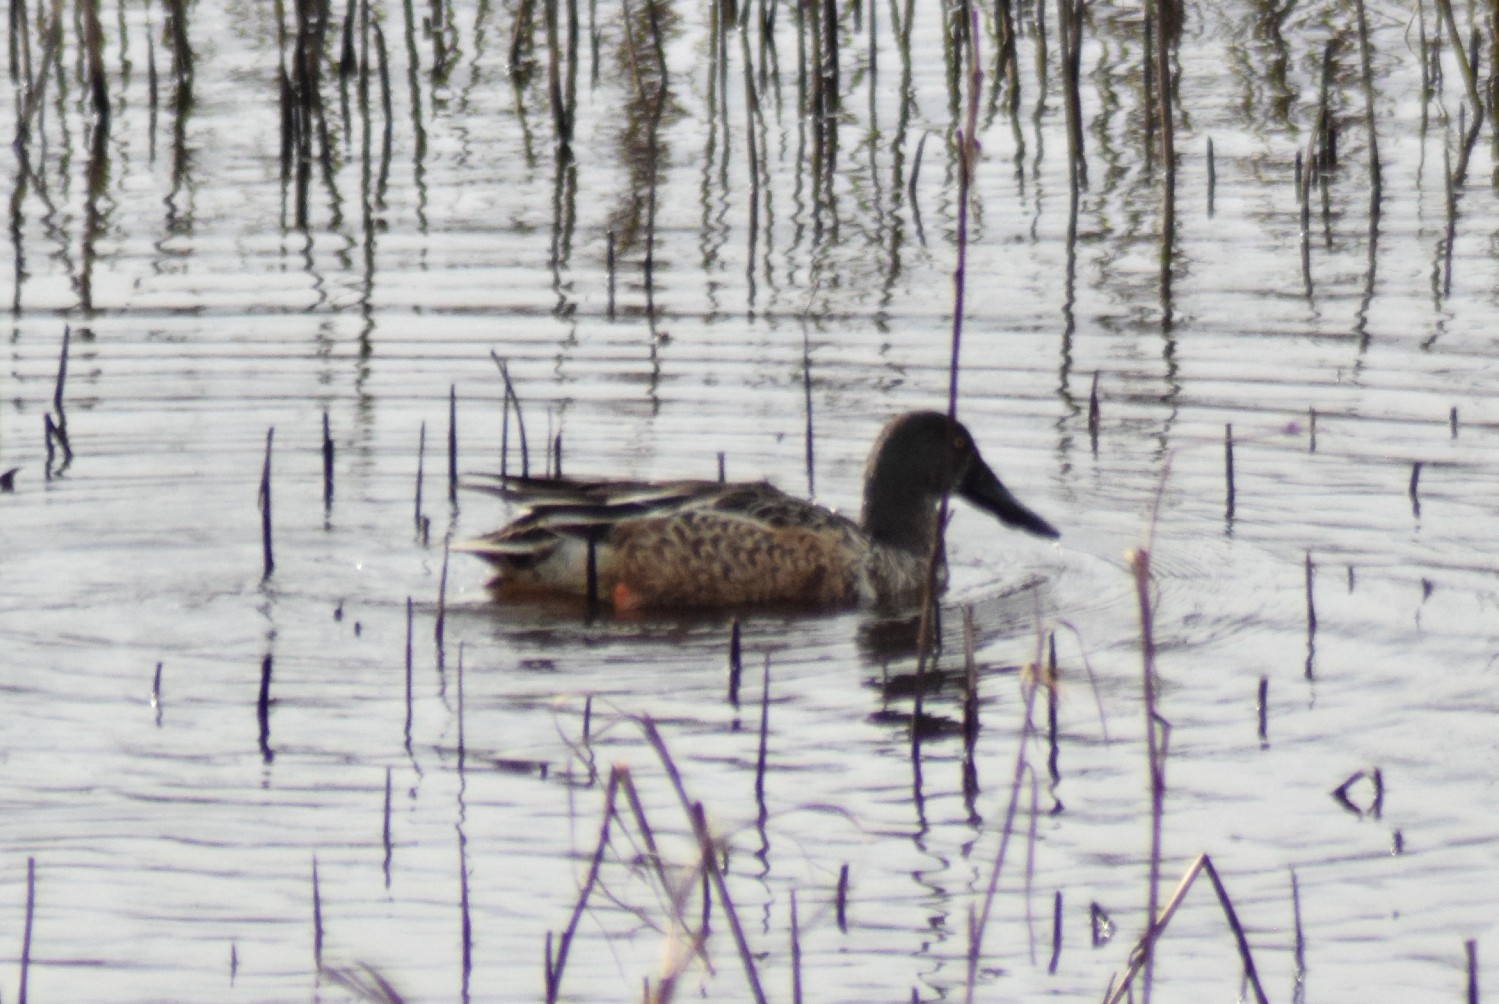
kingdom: Animalia
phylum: Chordata
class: Aves
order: Anseriformes
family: Anatidae
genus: Spatula
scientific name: Spatula clypeata
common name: Northern shoveler
